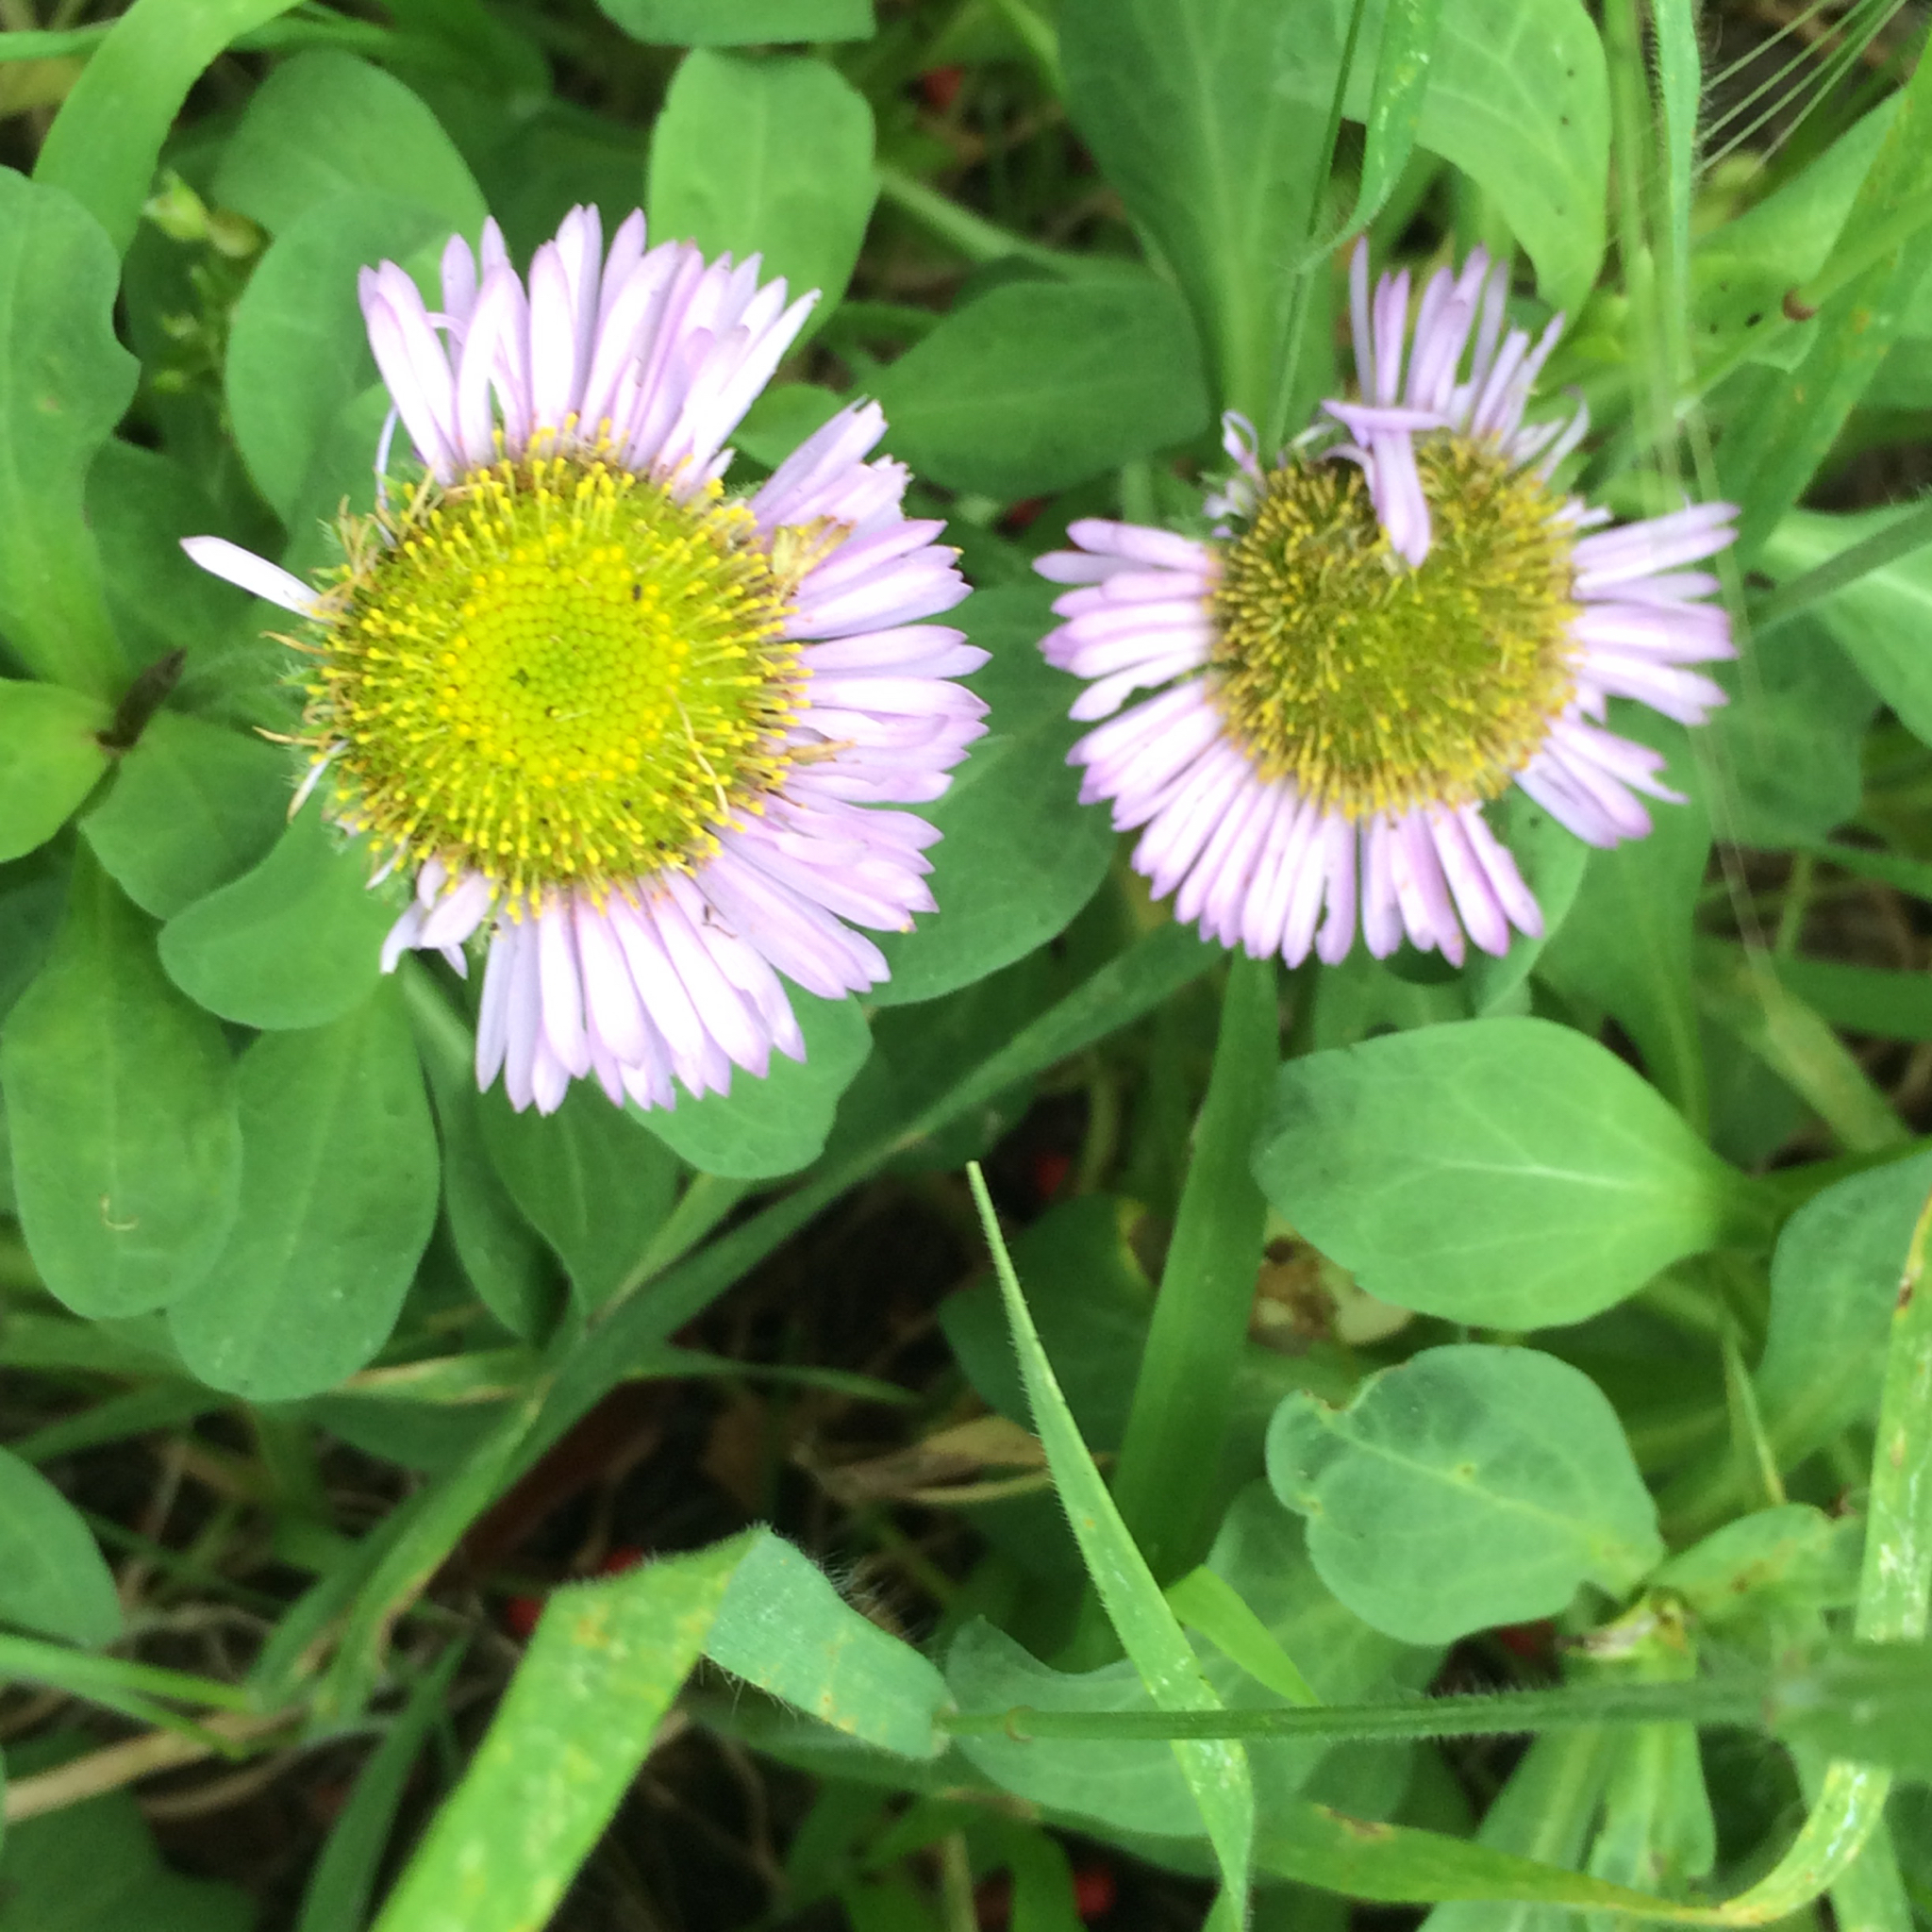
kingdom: Plantae
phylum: Tracheophyta
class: Magnoliopsida
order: Asterales
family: Asteraceae
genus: Erigeron
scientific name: Erigeron glaucus
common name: Seaside daisy
